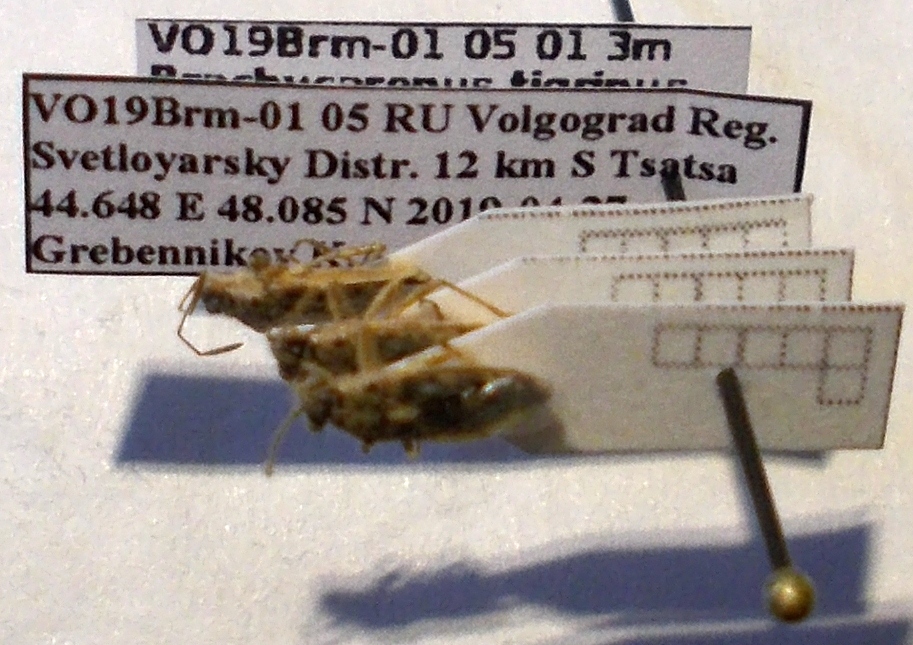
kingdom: Animalia
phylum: Arthropoda
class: Insecta
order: Hemiptera
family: Rhopalidae
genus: Brachycarenus
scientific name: Brachycarenus tigrinus
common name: Scentless plant bug
